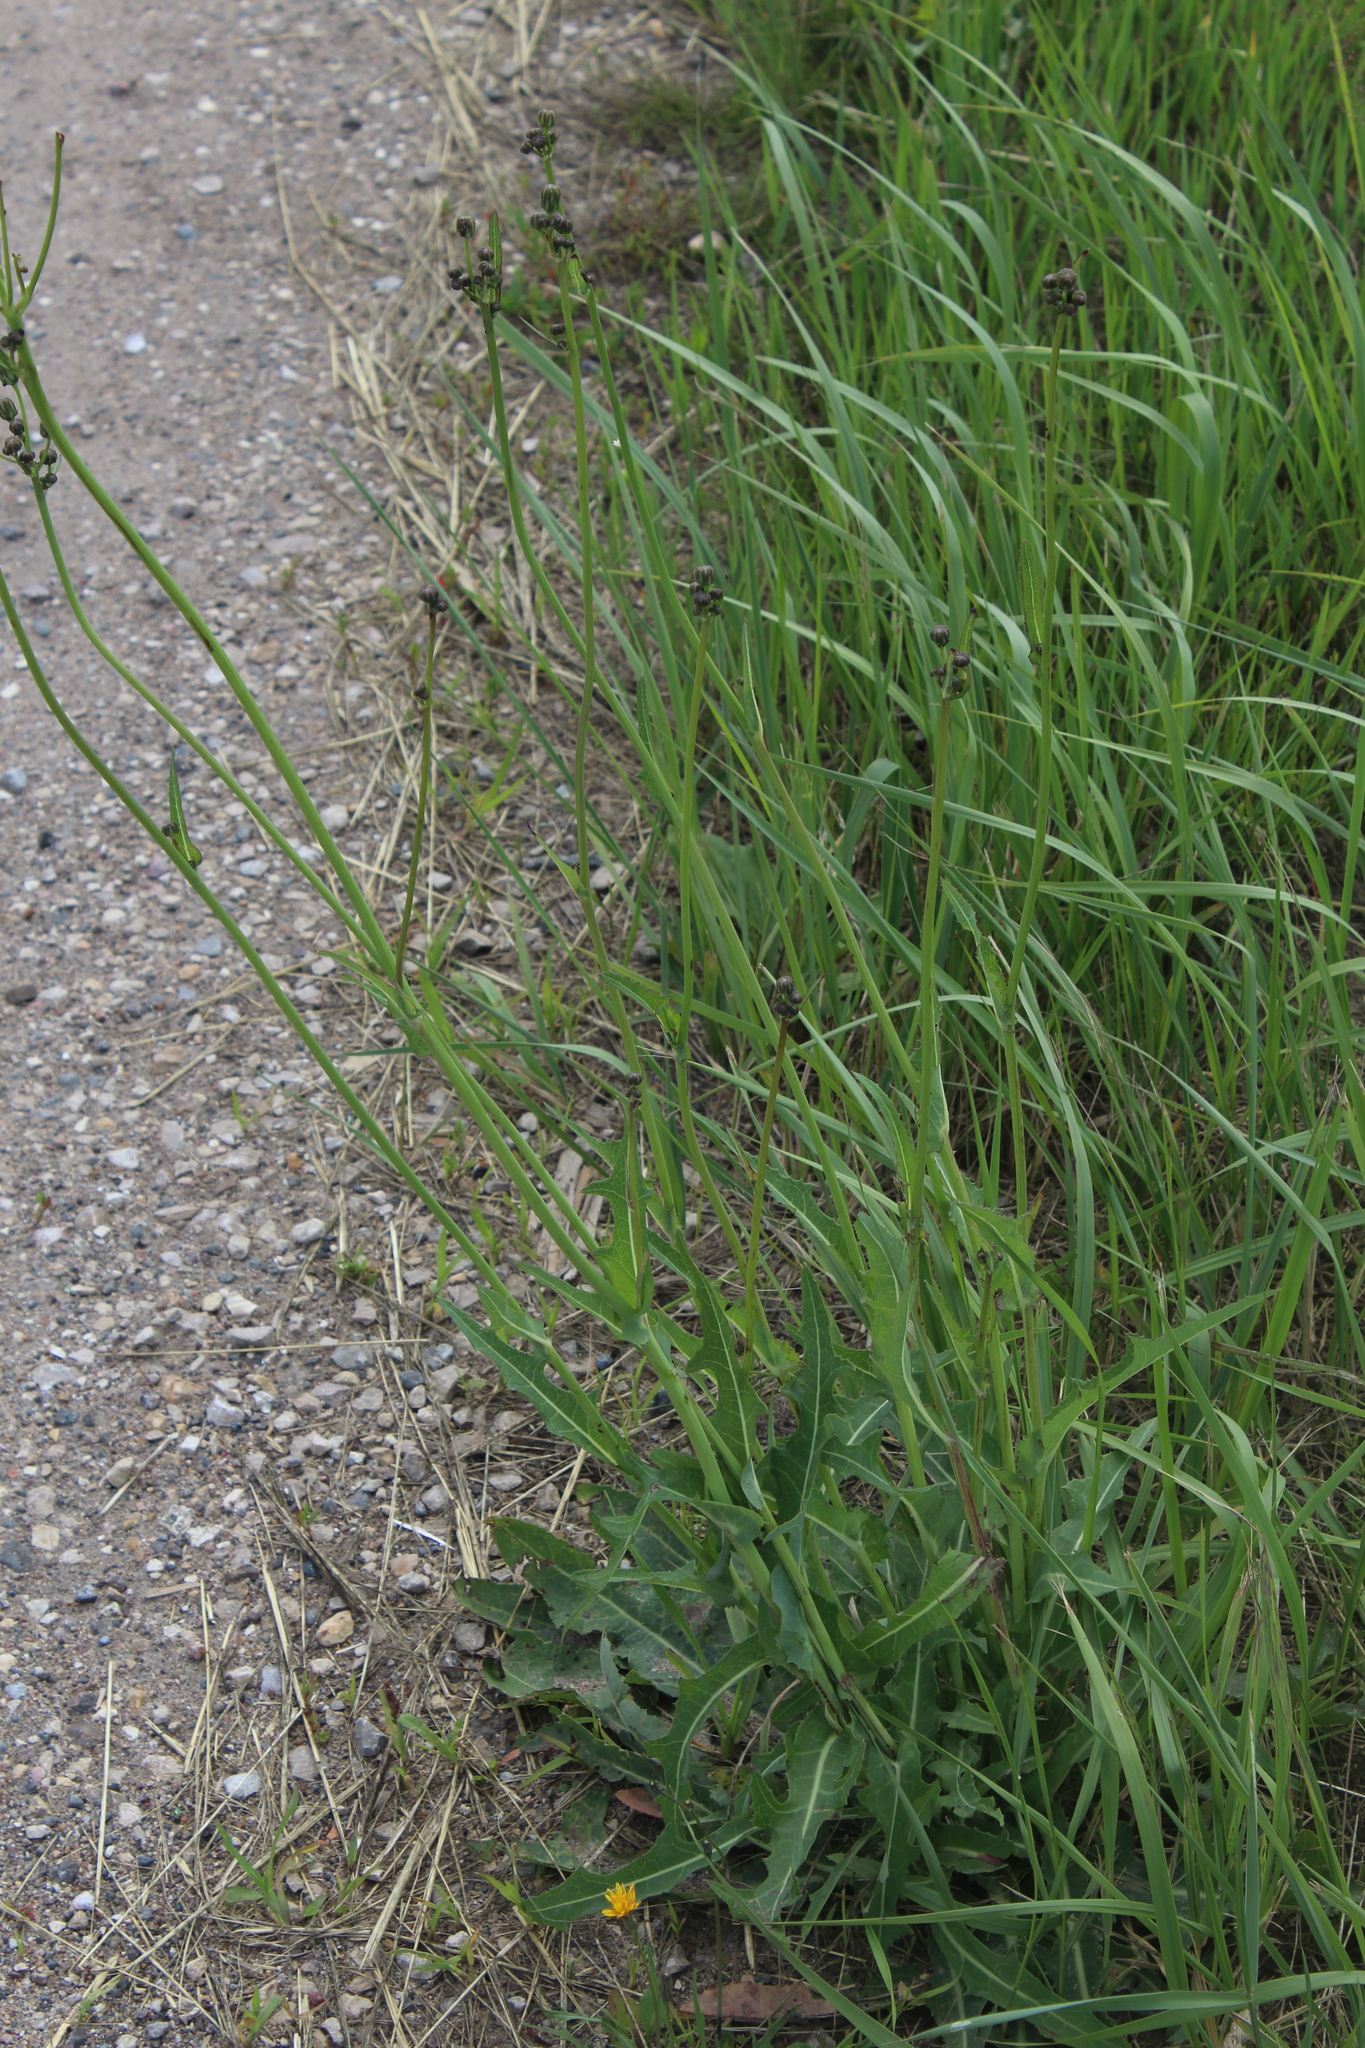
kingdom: Plantae
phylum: Tracheophyta
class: Magnoliopsida
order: Asterales
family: Asteraceae
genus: Sonchus
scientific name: Sonchus arvensis
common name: Perennial sow-thistle
